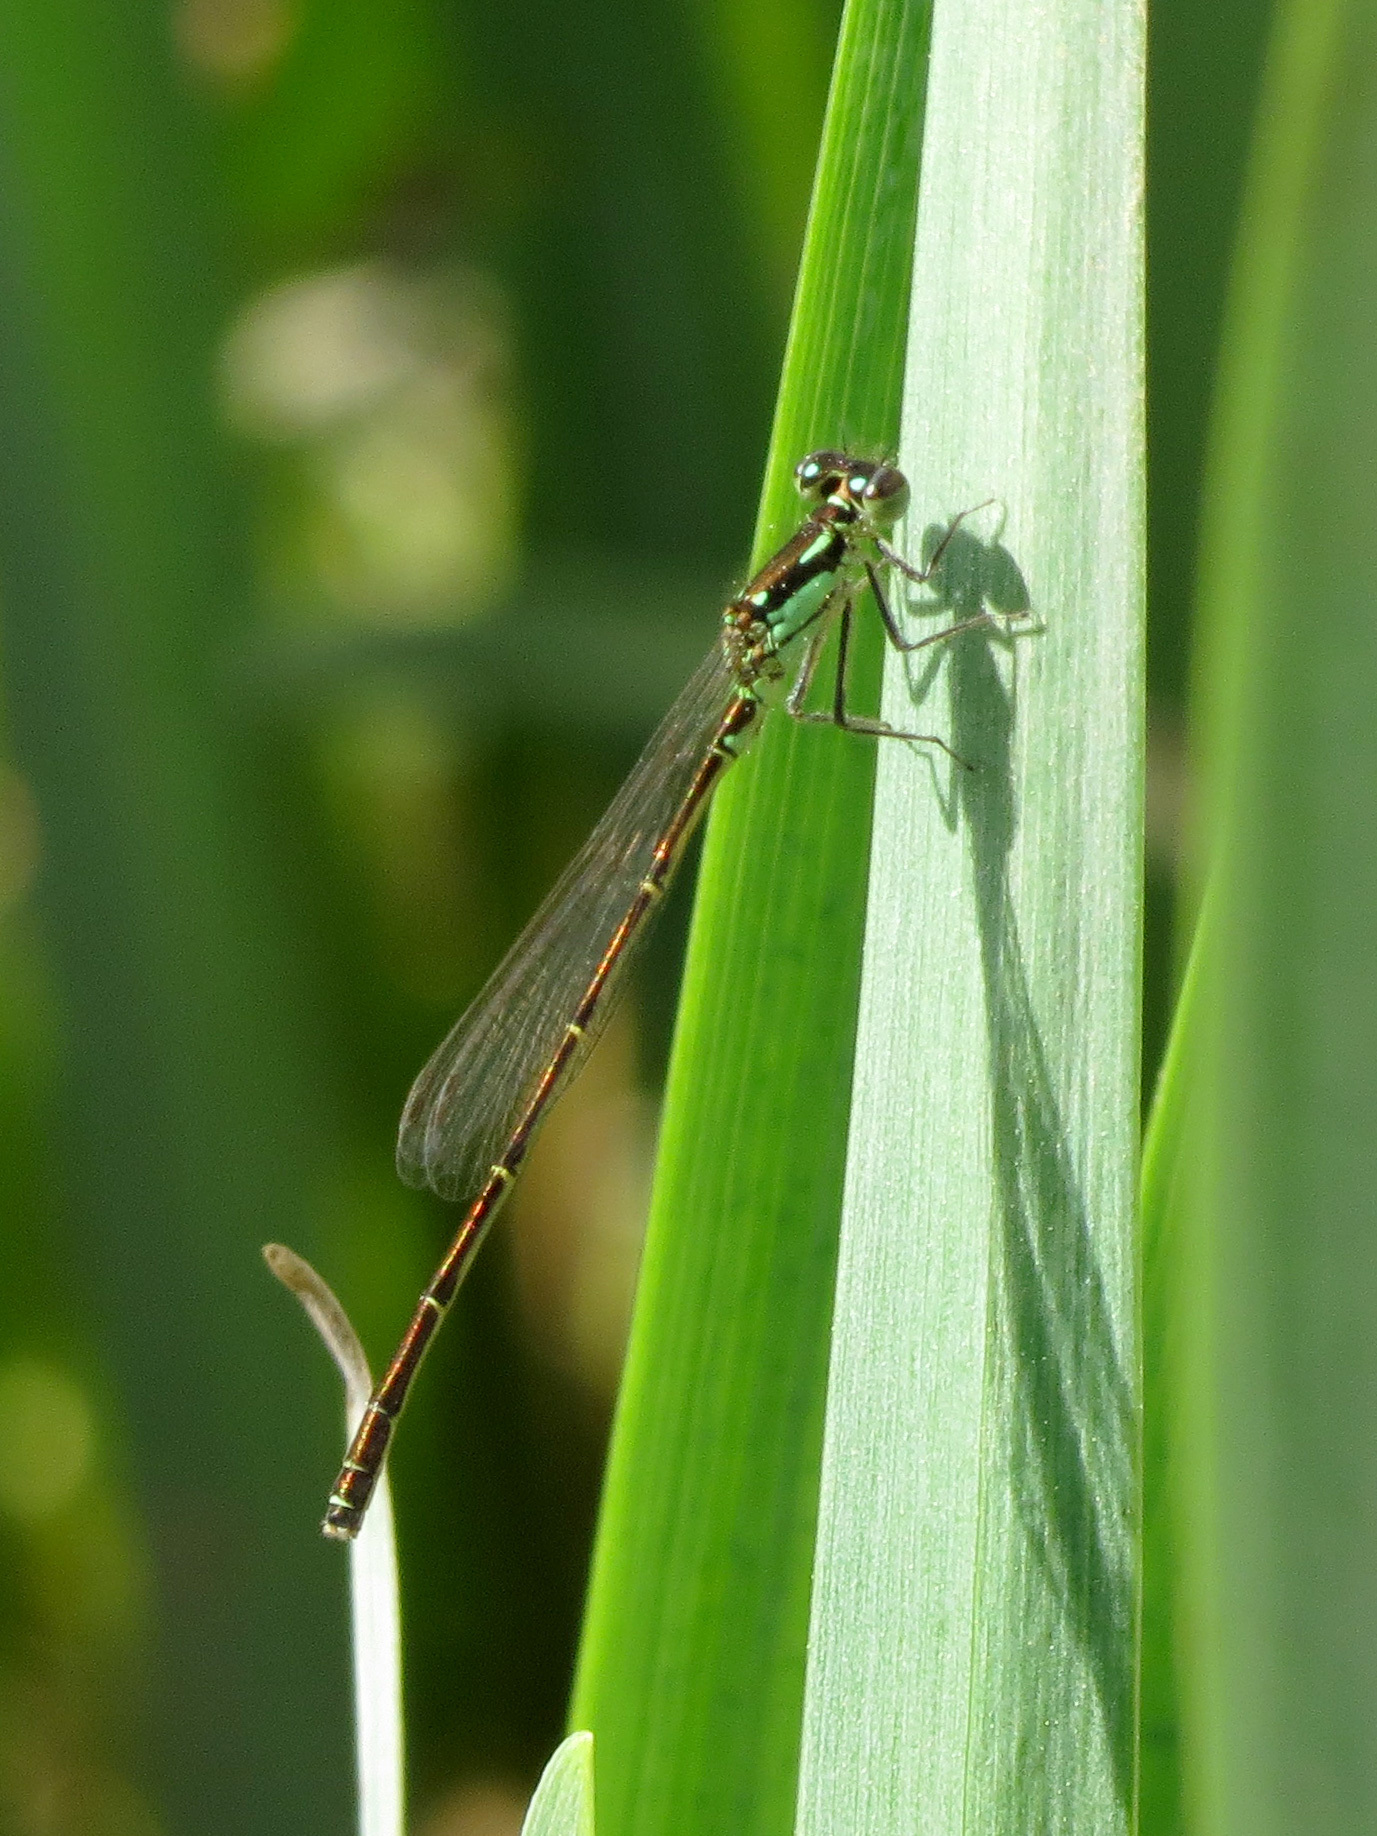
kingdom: Animalia
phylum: Arthropoda
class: Insecta
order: Odonata
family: Coenagrionidae
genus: Ischnura
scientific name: Ischnura posita
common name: Fragile forktail
